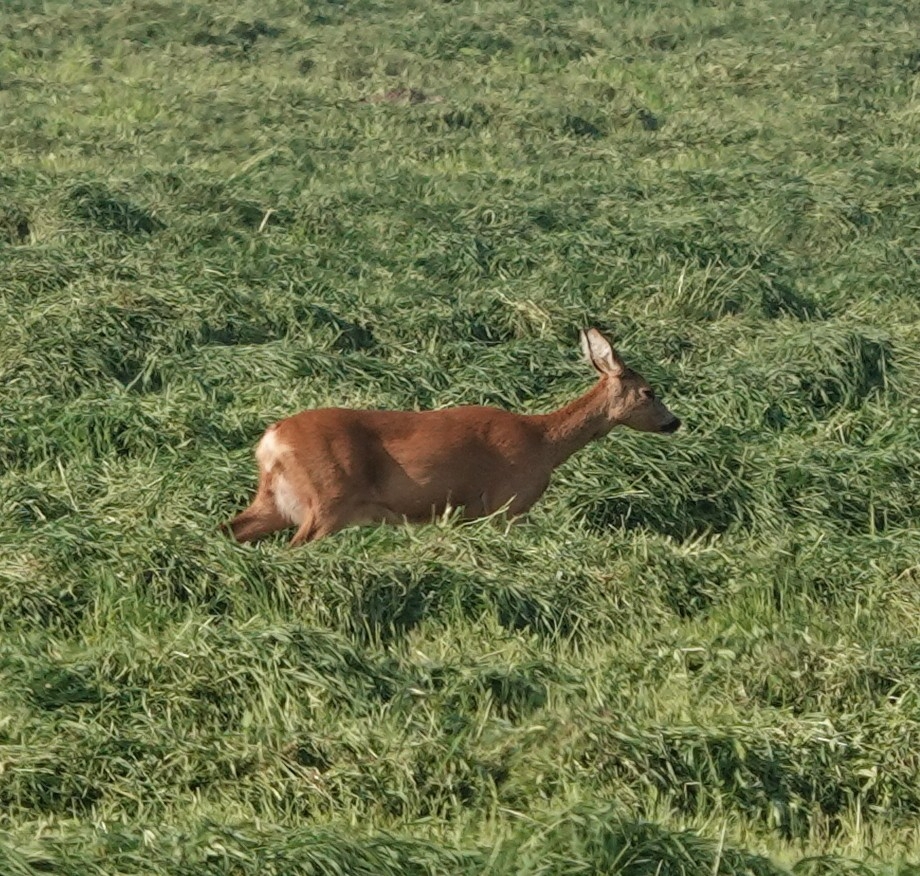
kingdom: Animalia
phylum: Chordata
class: Mammalia
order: Artiodactyla
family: Cervidae
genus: Capreolus
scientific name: Capreolus capreolus
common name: Western roe deer
